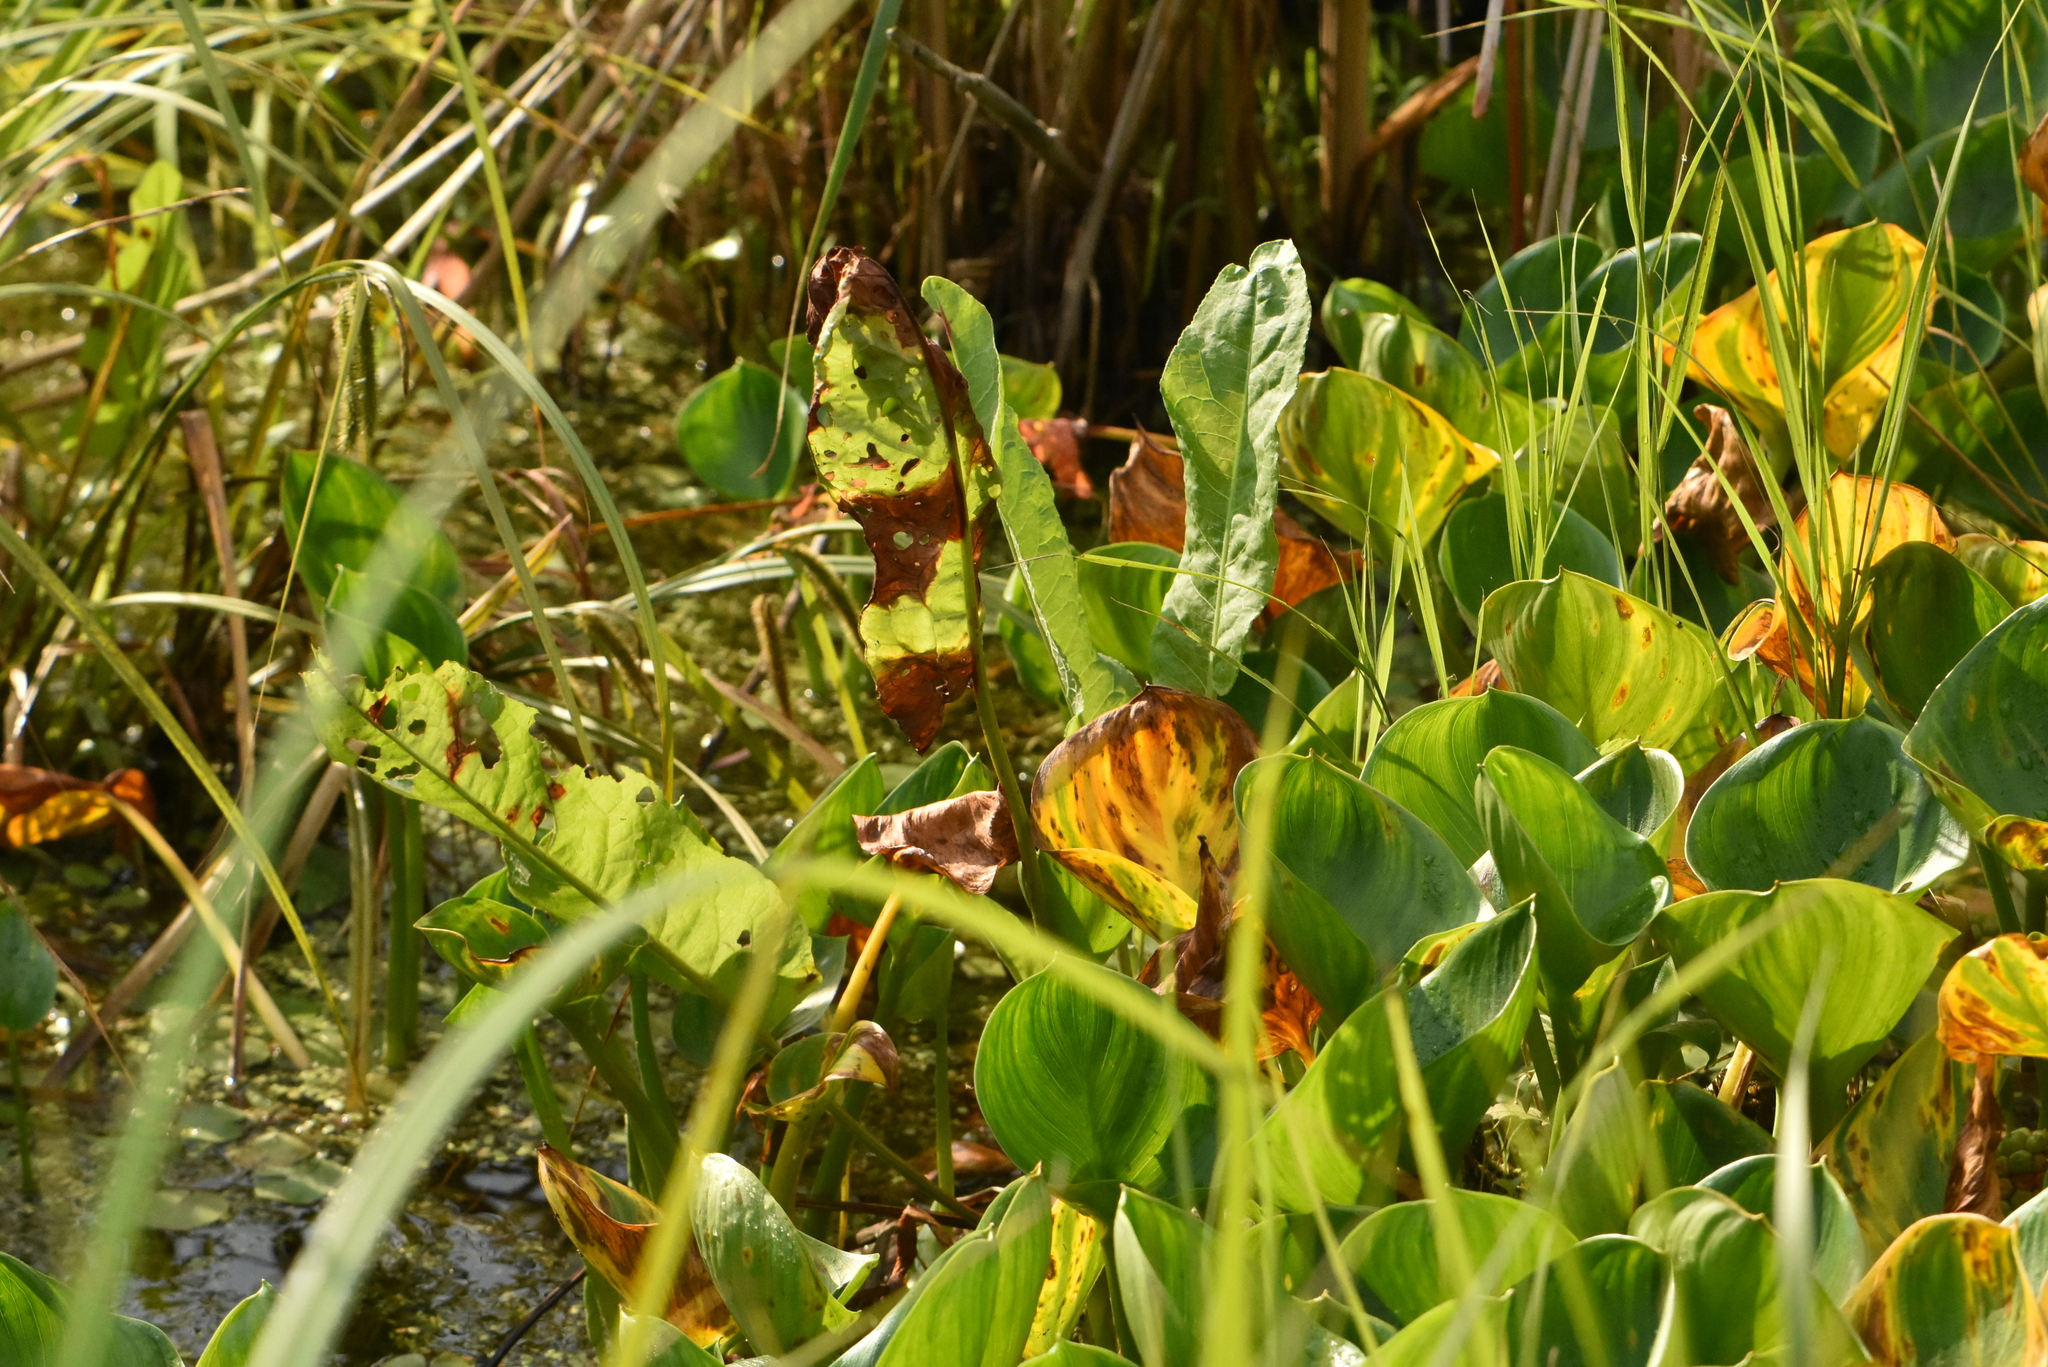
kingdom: Plantae
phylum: Tracheophyta
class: Liliopsida
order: Alismatales
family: Araceae
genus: Calla
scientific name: Calla palustris
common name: Bog arum
